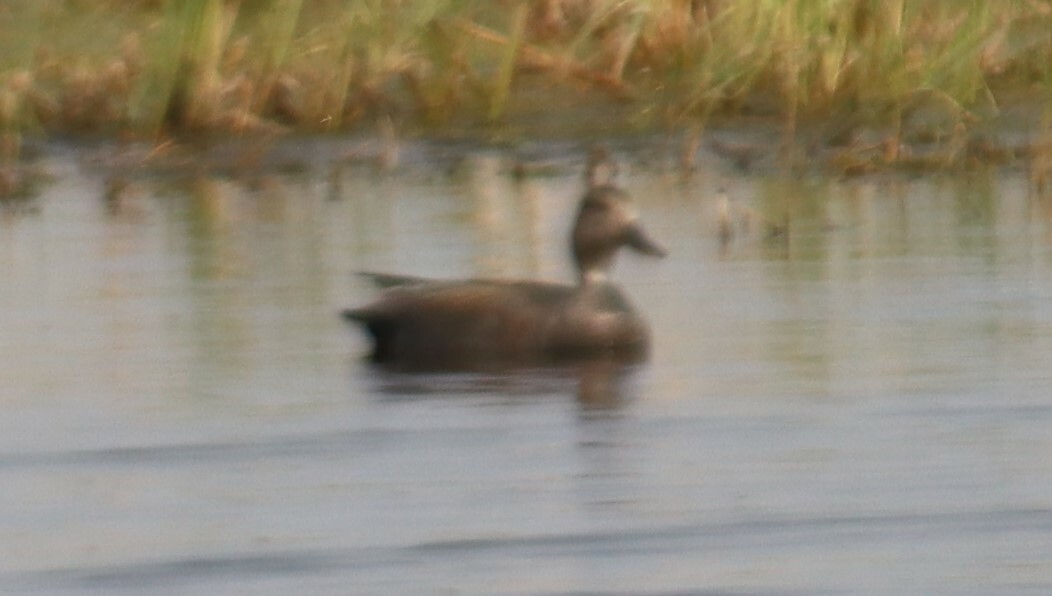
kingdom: Animalia
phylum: Chordata
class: Aves
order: Anseriformes
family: Anatidae
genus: Mareca
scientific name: Mareca strepera
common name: Gadwall
